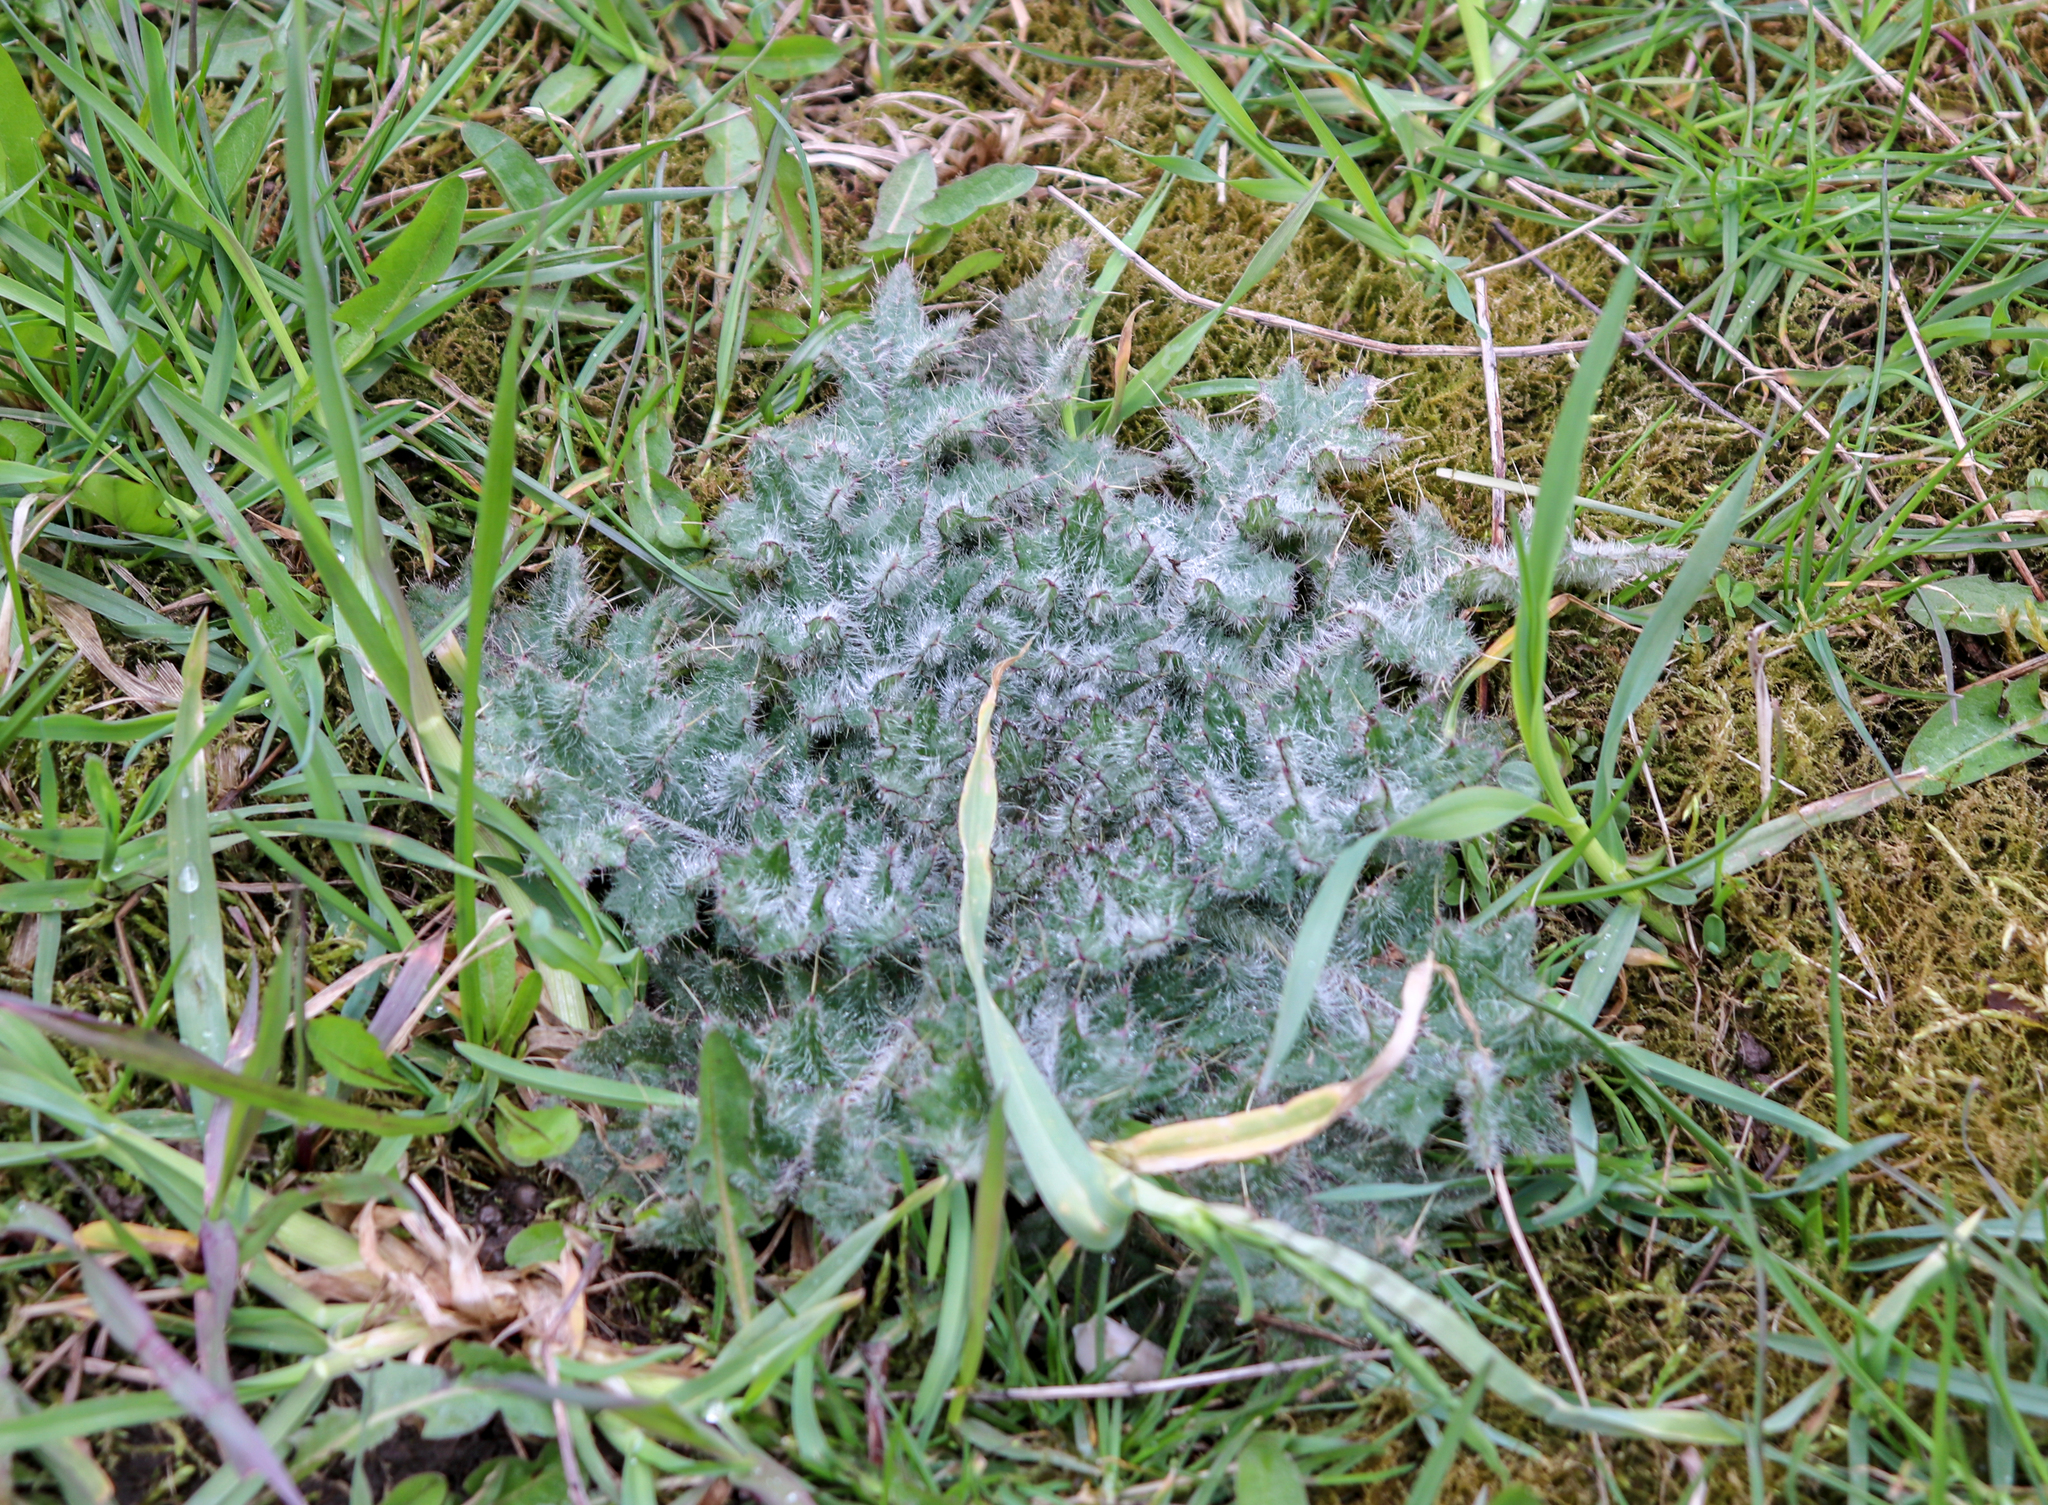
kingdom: Plantae
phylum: Tracheophyta
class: Magnoliopsida
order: Asterales
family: Asteraceae
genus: Cirsium
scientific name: Cirsium vulgare
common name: Bull thistle
